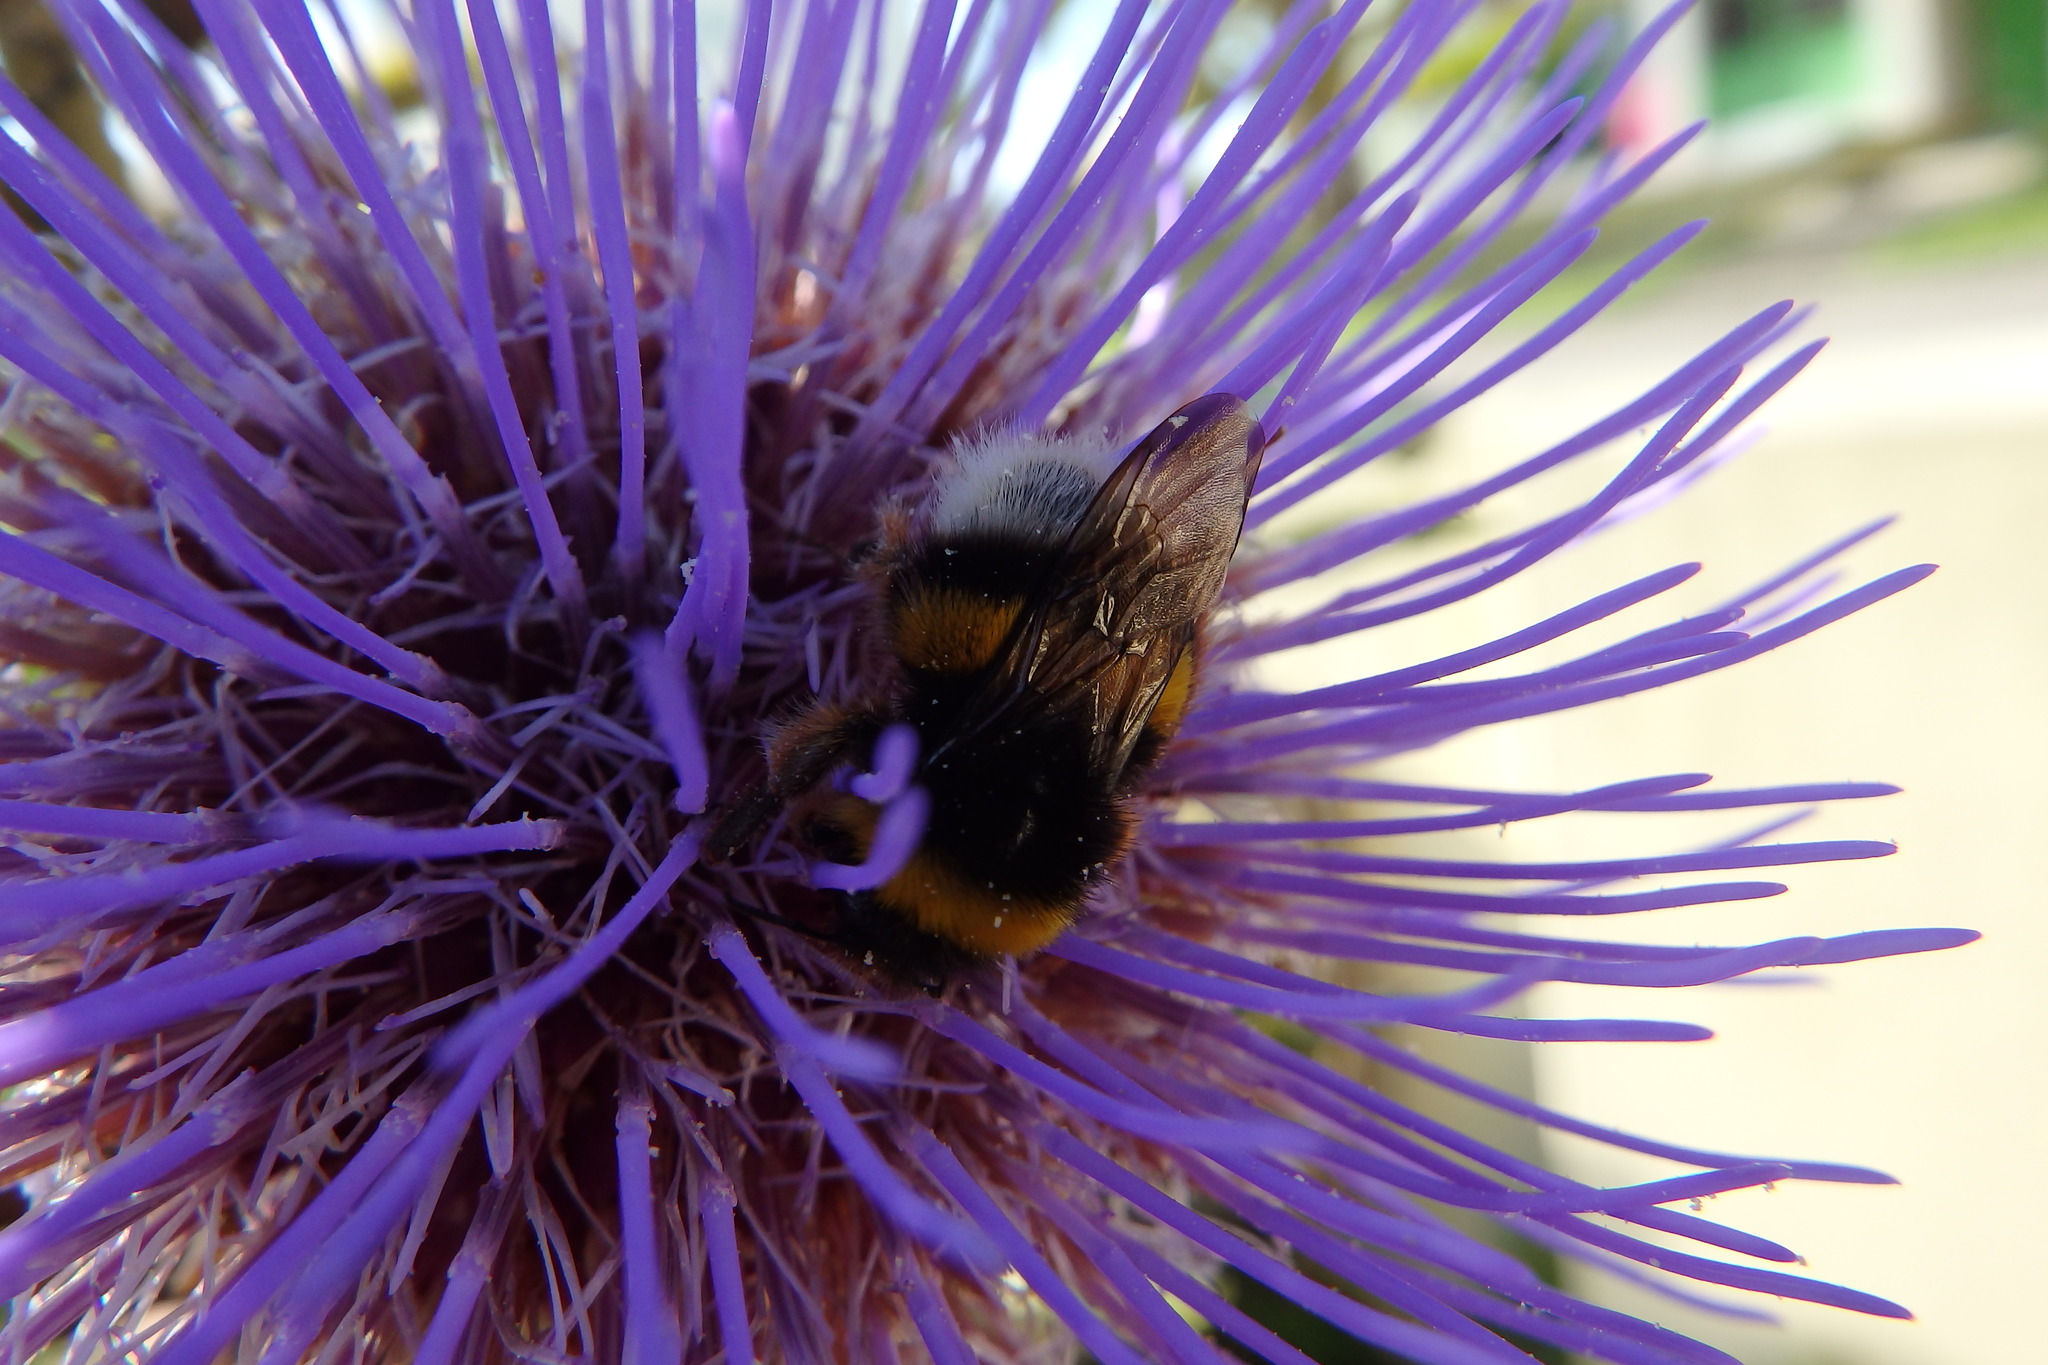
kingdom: Animalia
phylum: Arthropoda
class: Insecta
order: Hymenoptera
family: Apidae
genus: Bombus
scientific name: Bombus terrestris
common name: Buff-tailed bumblebee
